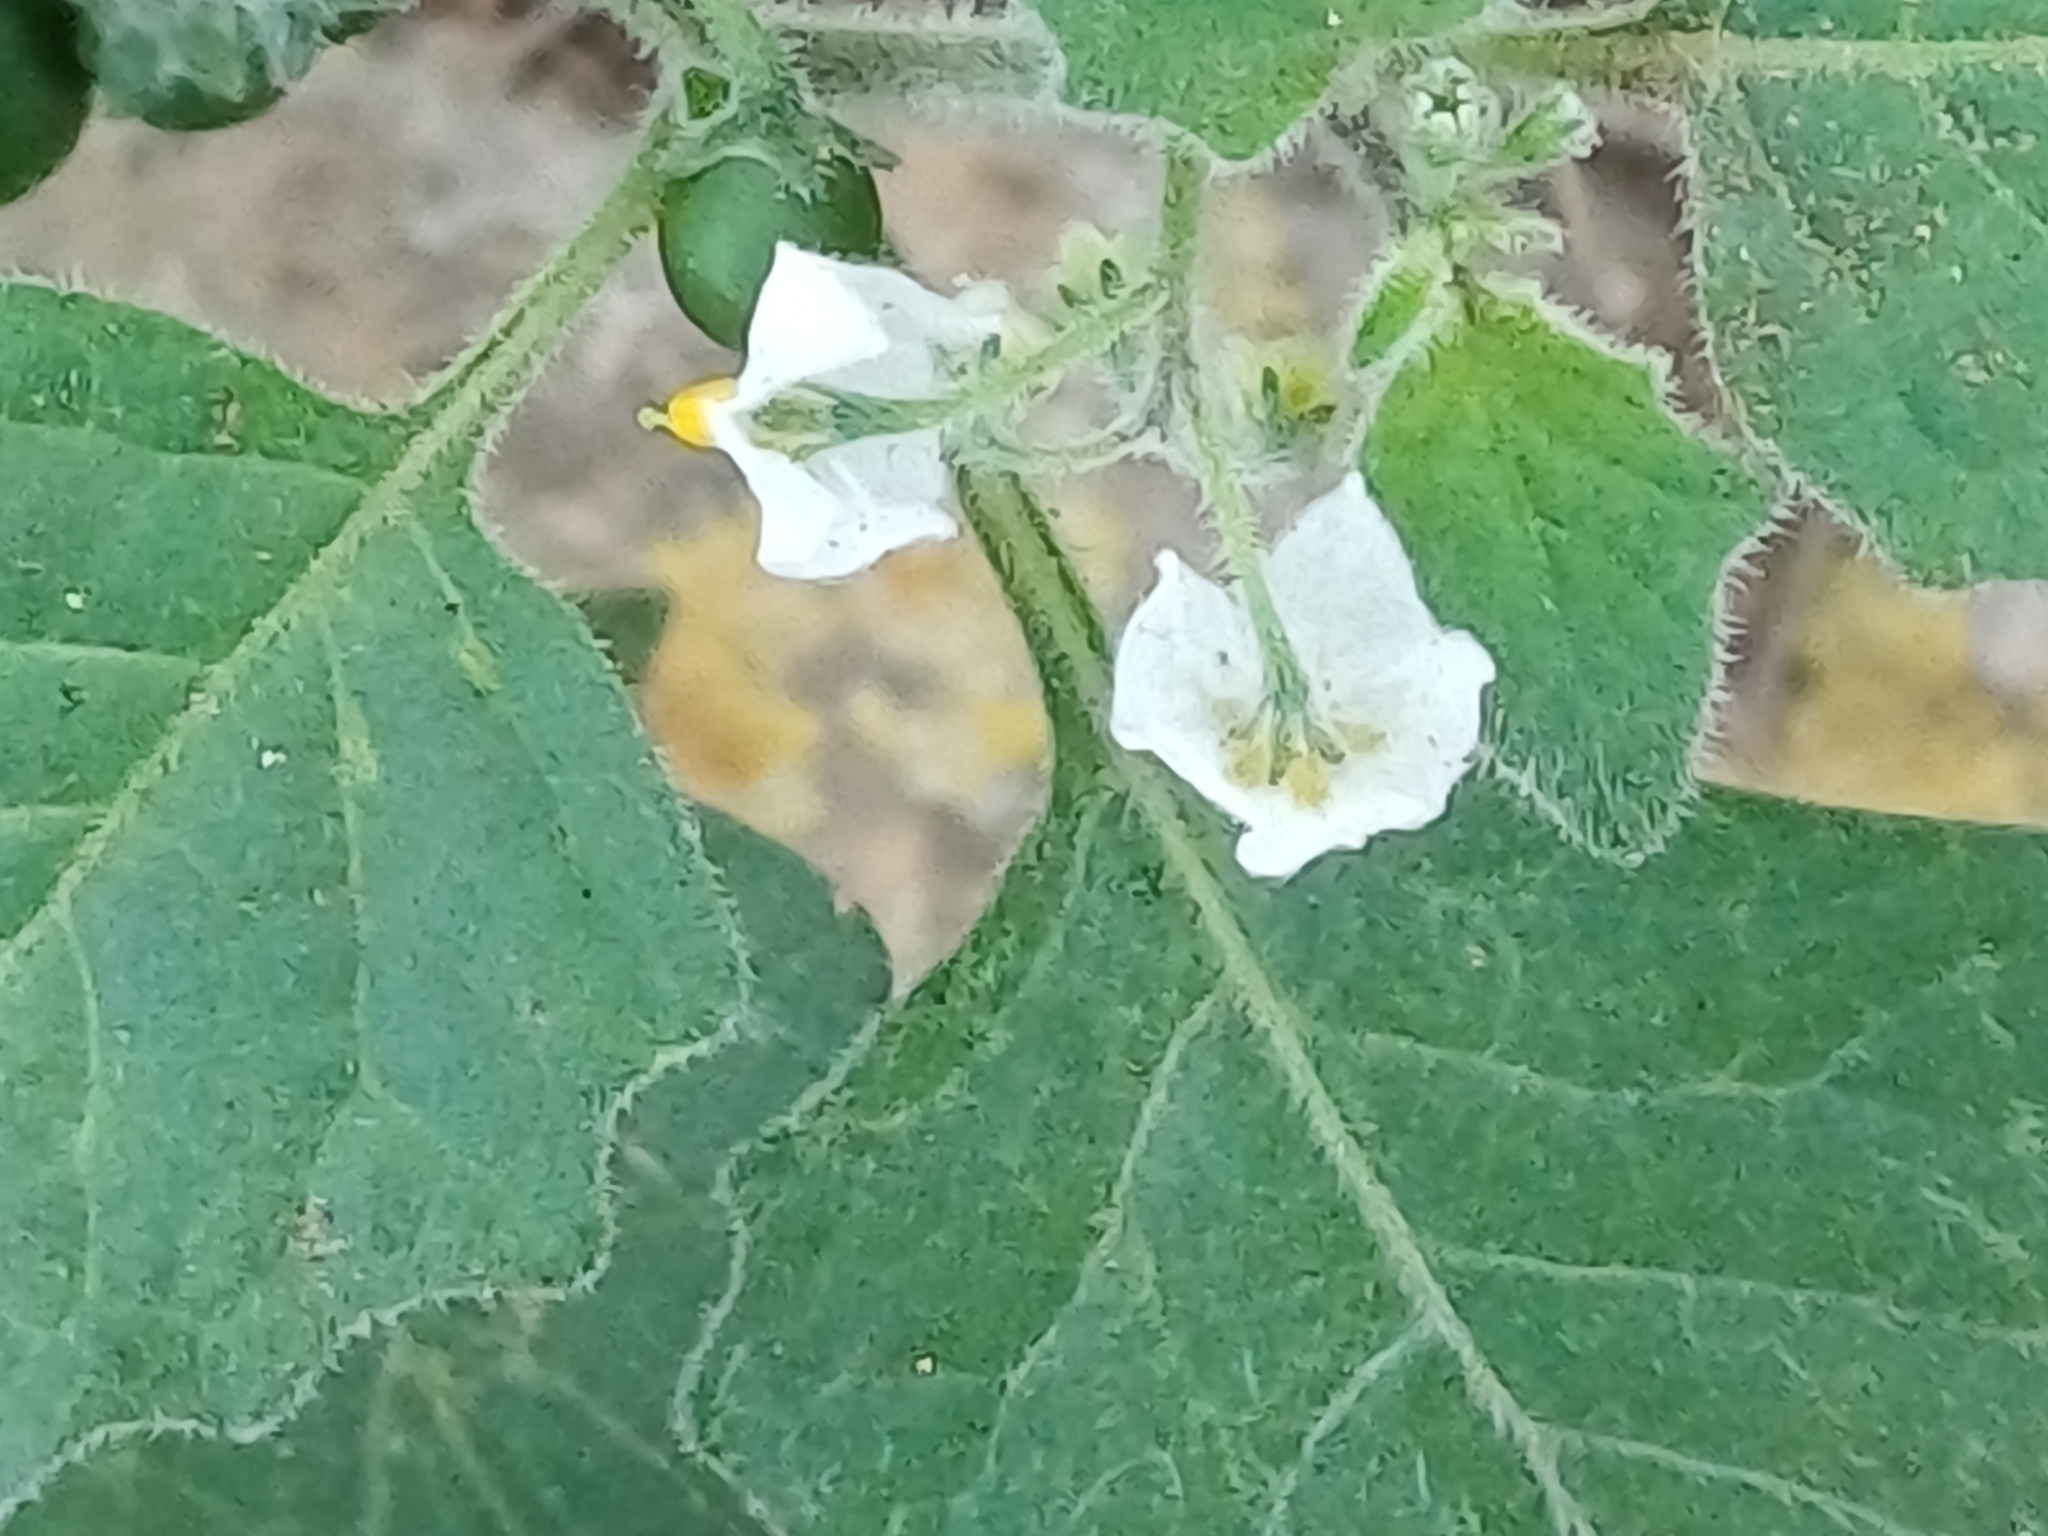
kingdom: Plantae
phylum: Tracheophyta
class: Magnoliopsida
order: Solanales
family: Solanaceae
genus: Solanum
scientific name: Solanum nigrum
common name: Black nightshade
